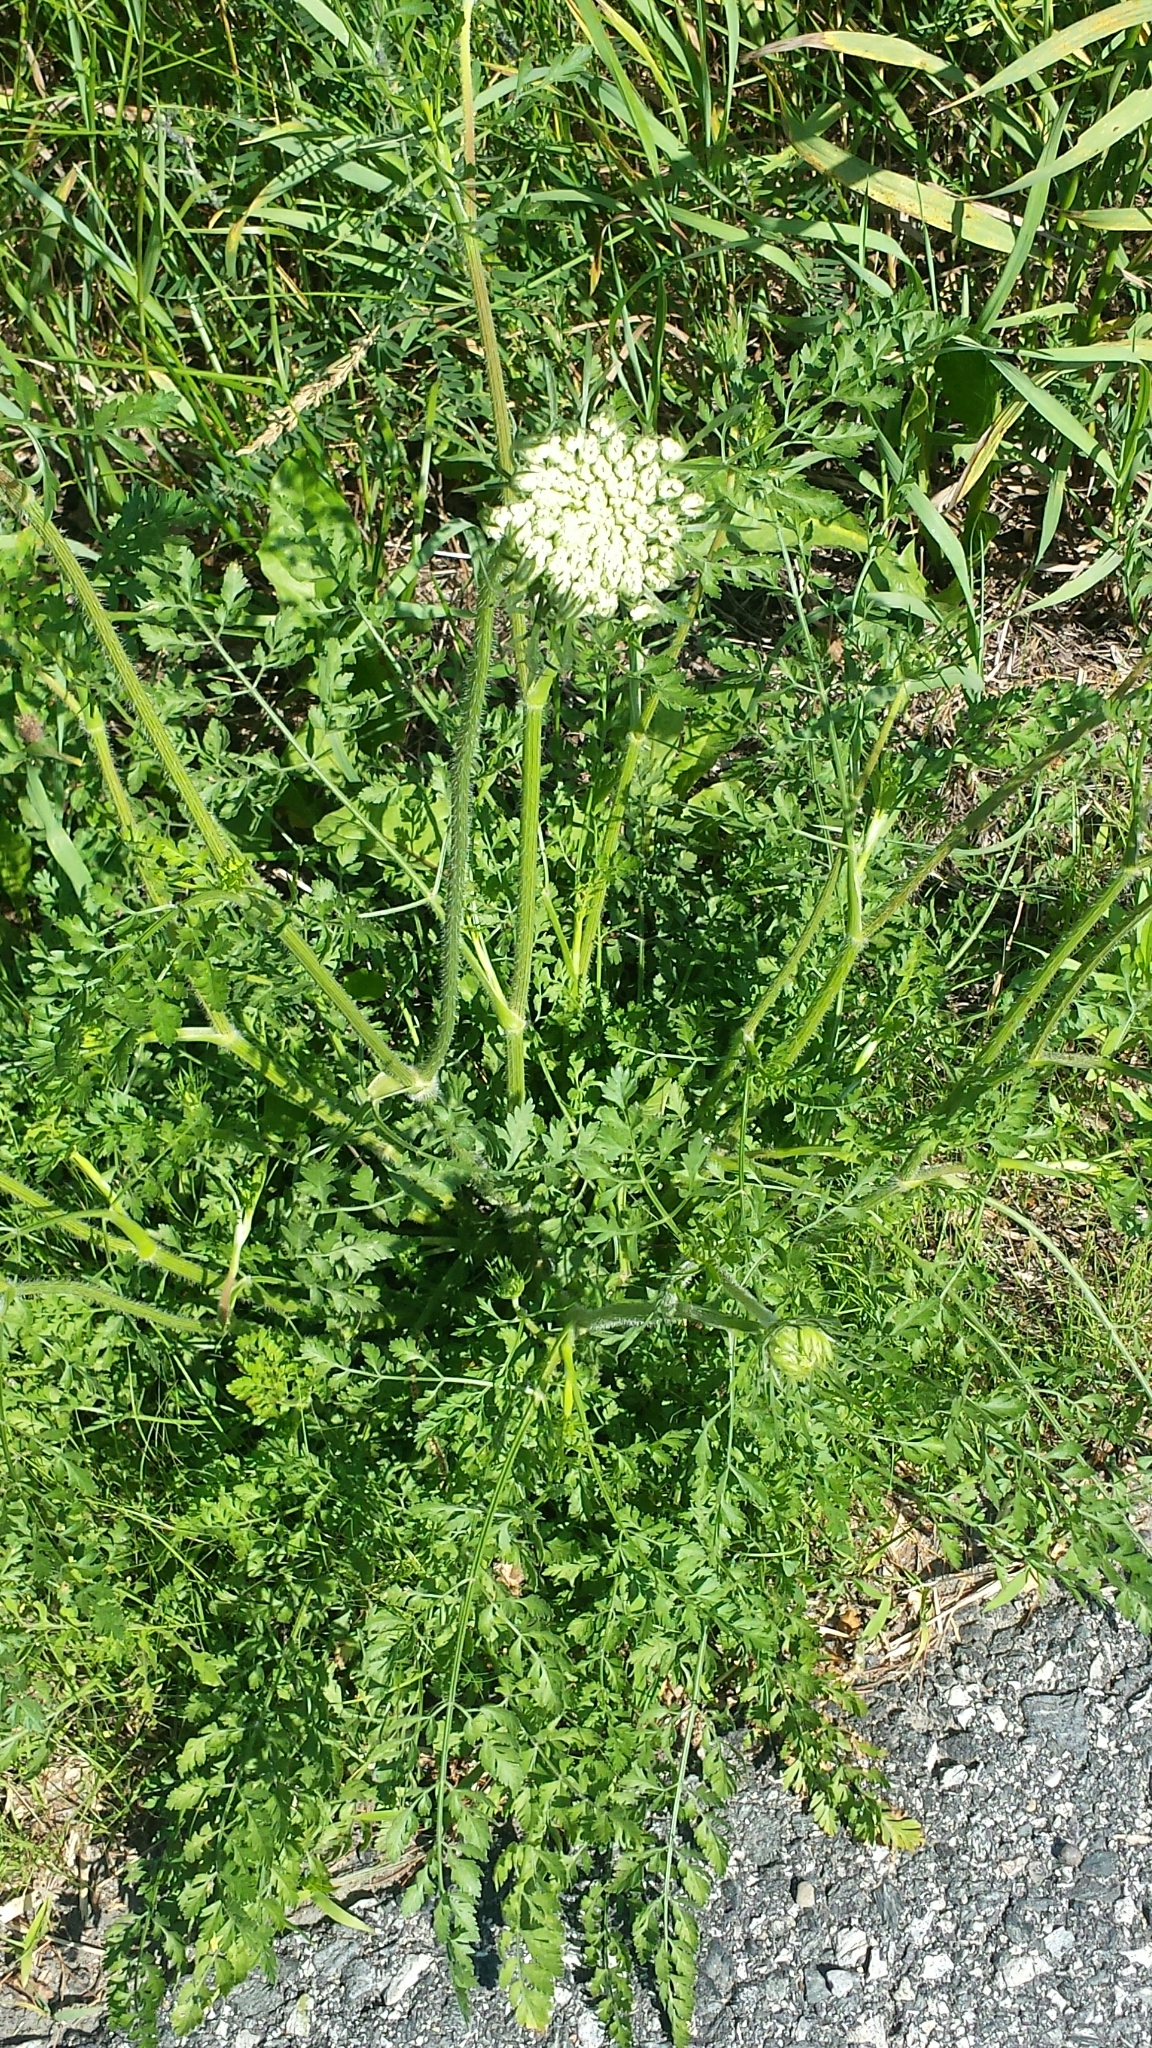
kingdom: Plantae
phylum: Tracheophyta
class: Magnoliopsida
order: Apiales
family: Apiaceae
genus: Daucus
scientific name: Daucus carota
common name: Wild carrot
